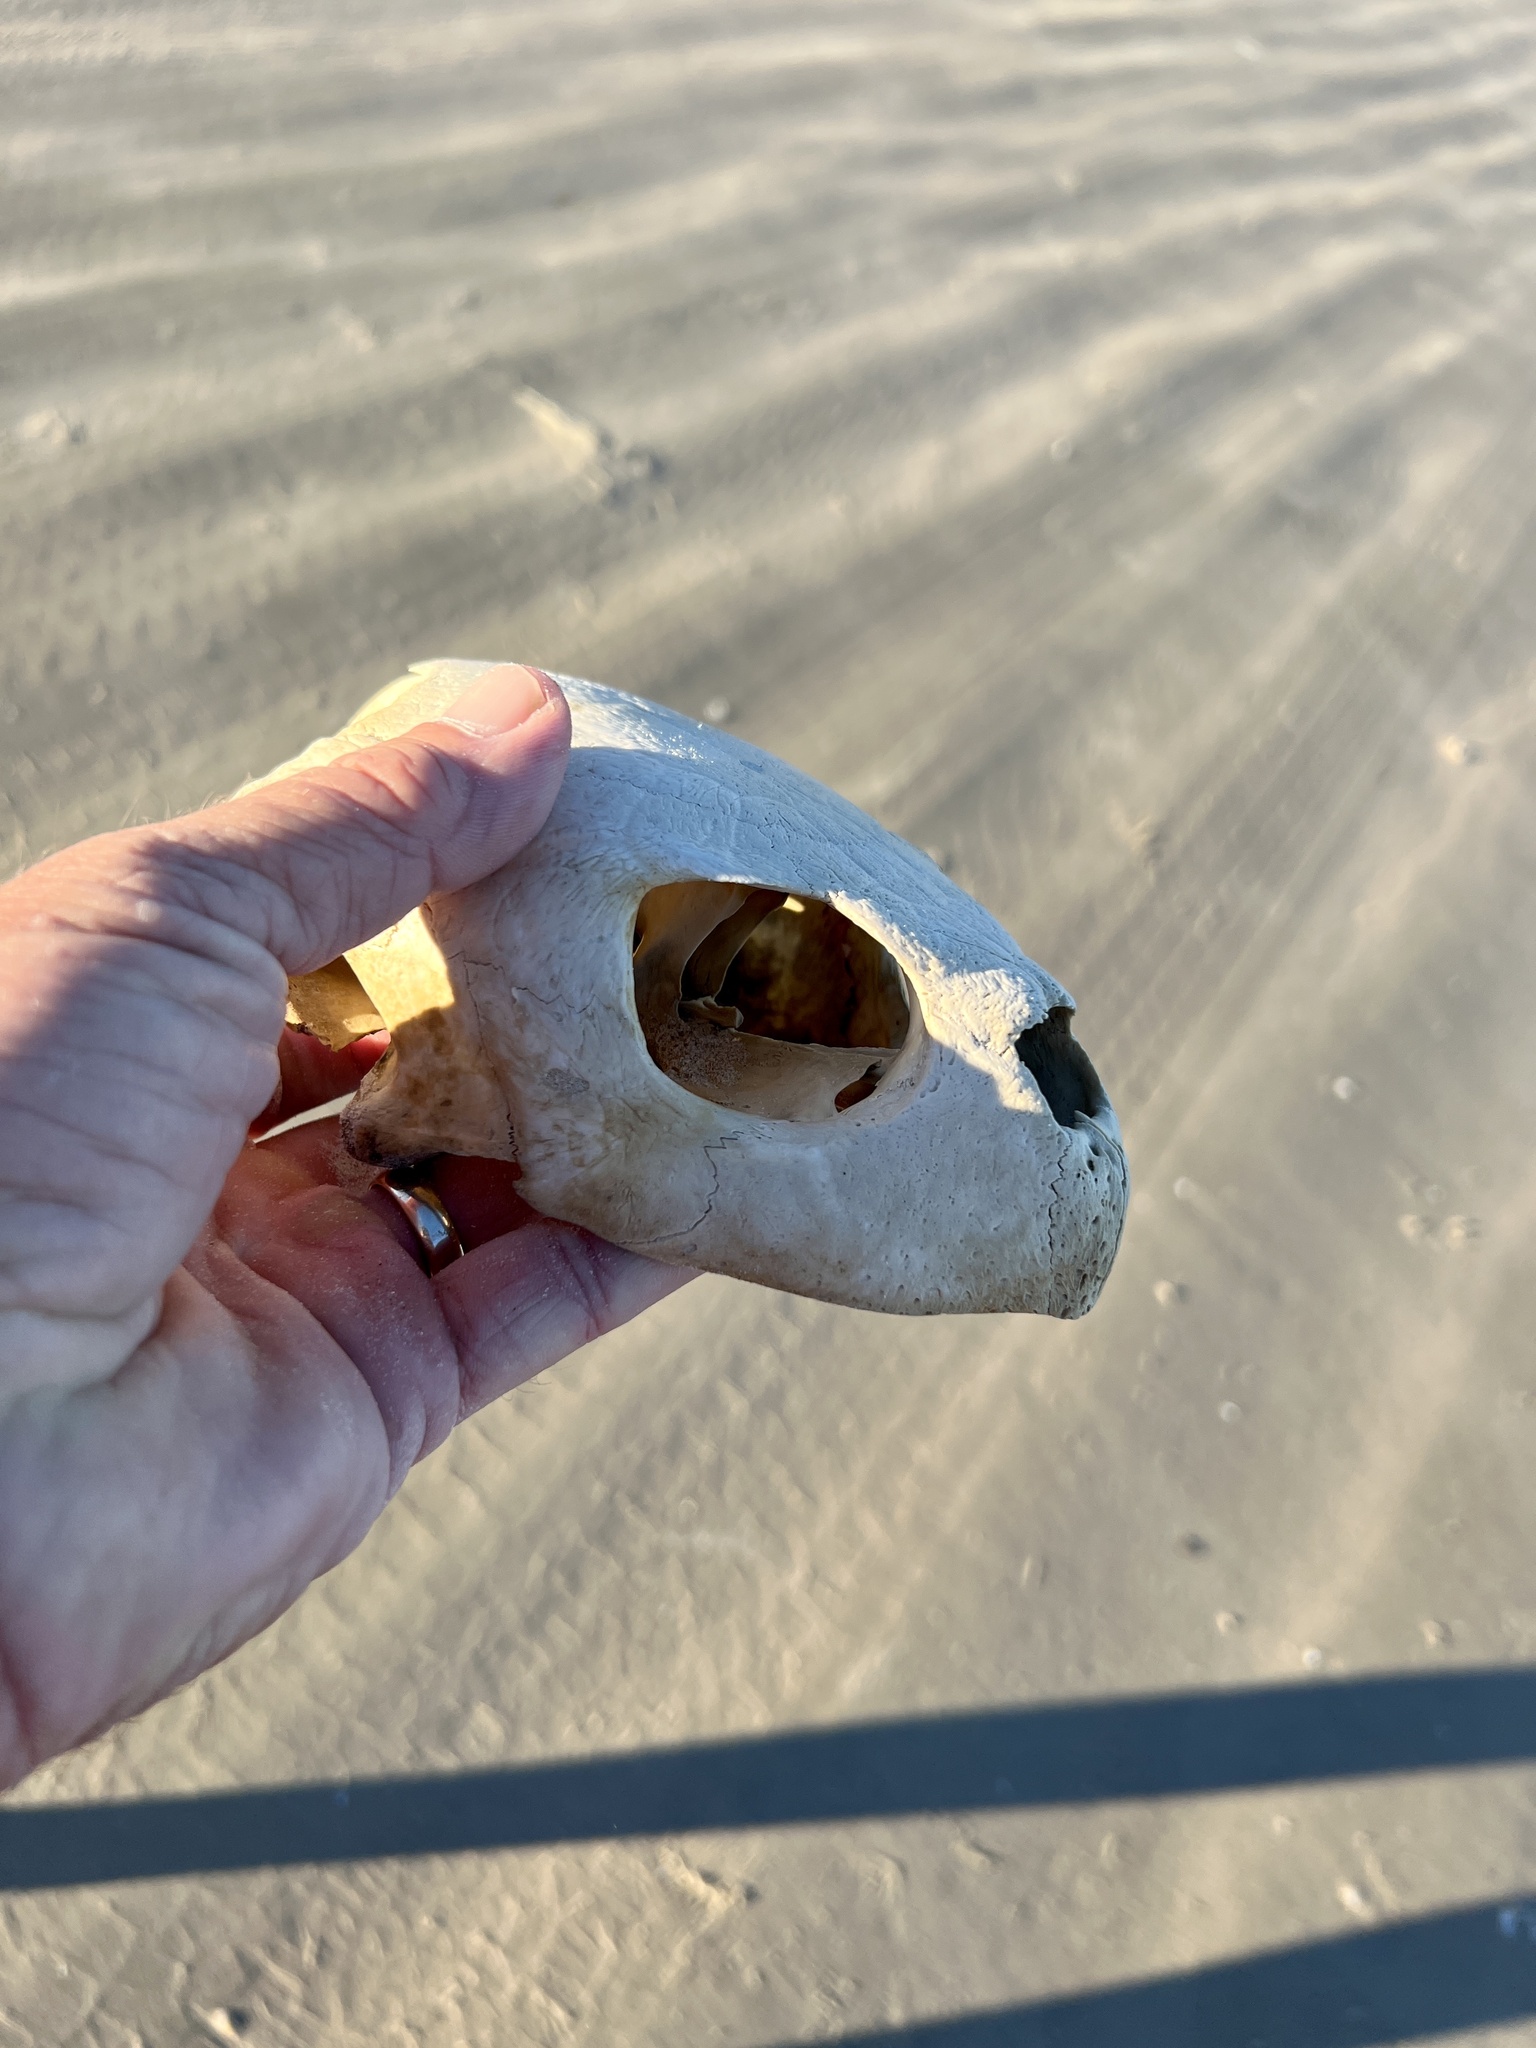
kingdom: Animalia
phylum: Chordata
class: Testudines
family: Cheloniidae
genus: Lepidochelys
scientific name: Lepidochelys kempii
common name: Kemp's ridley turtle
